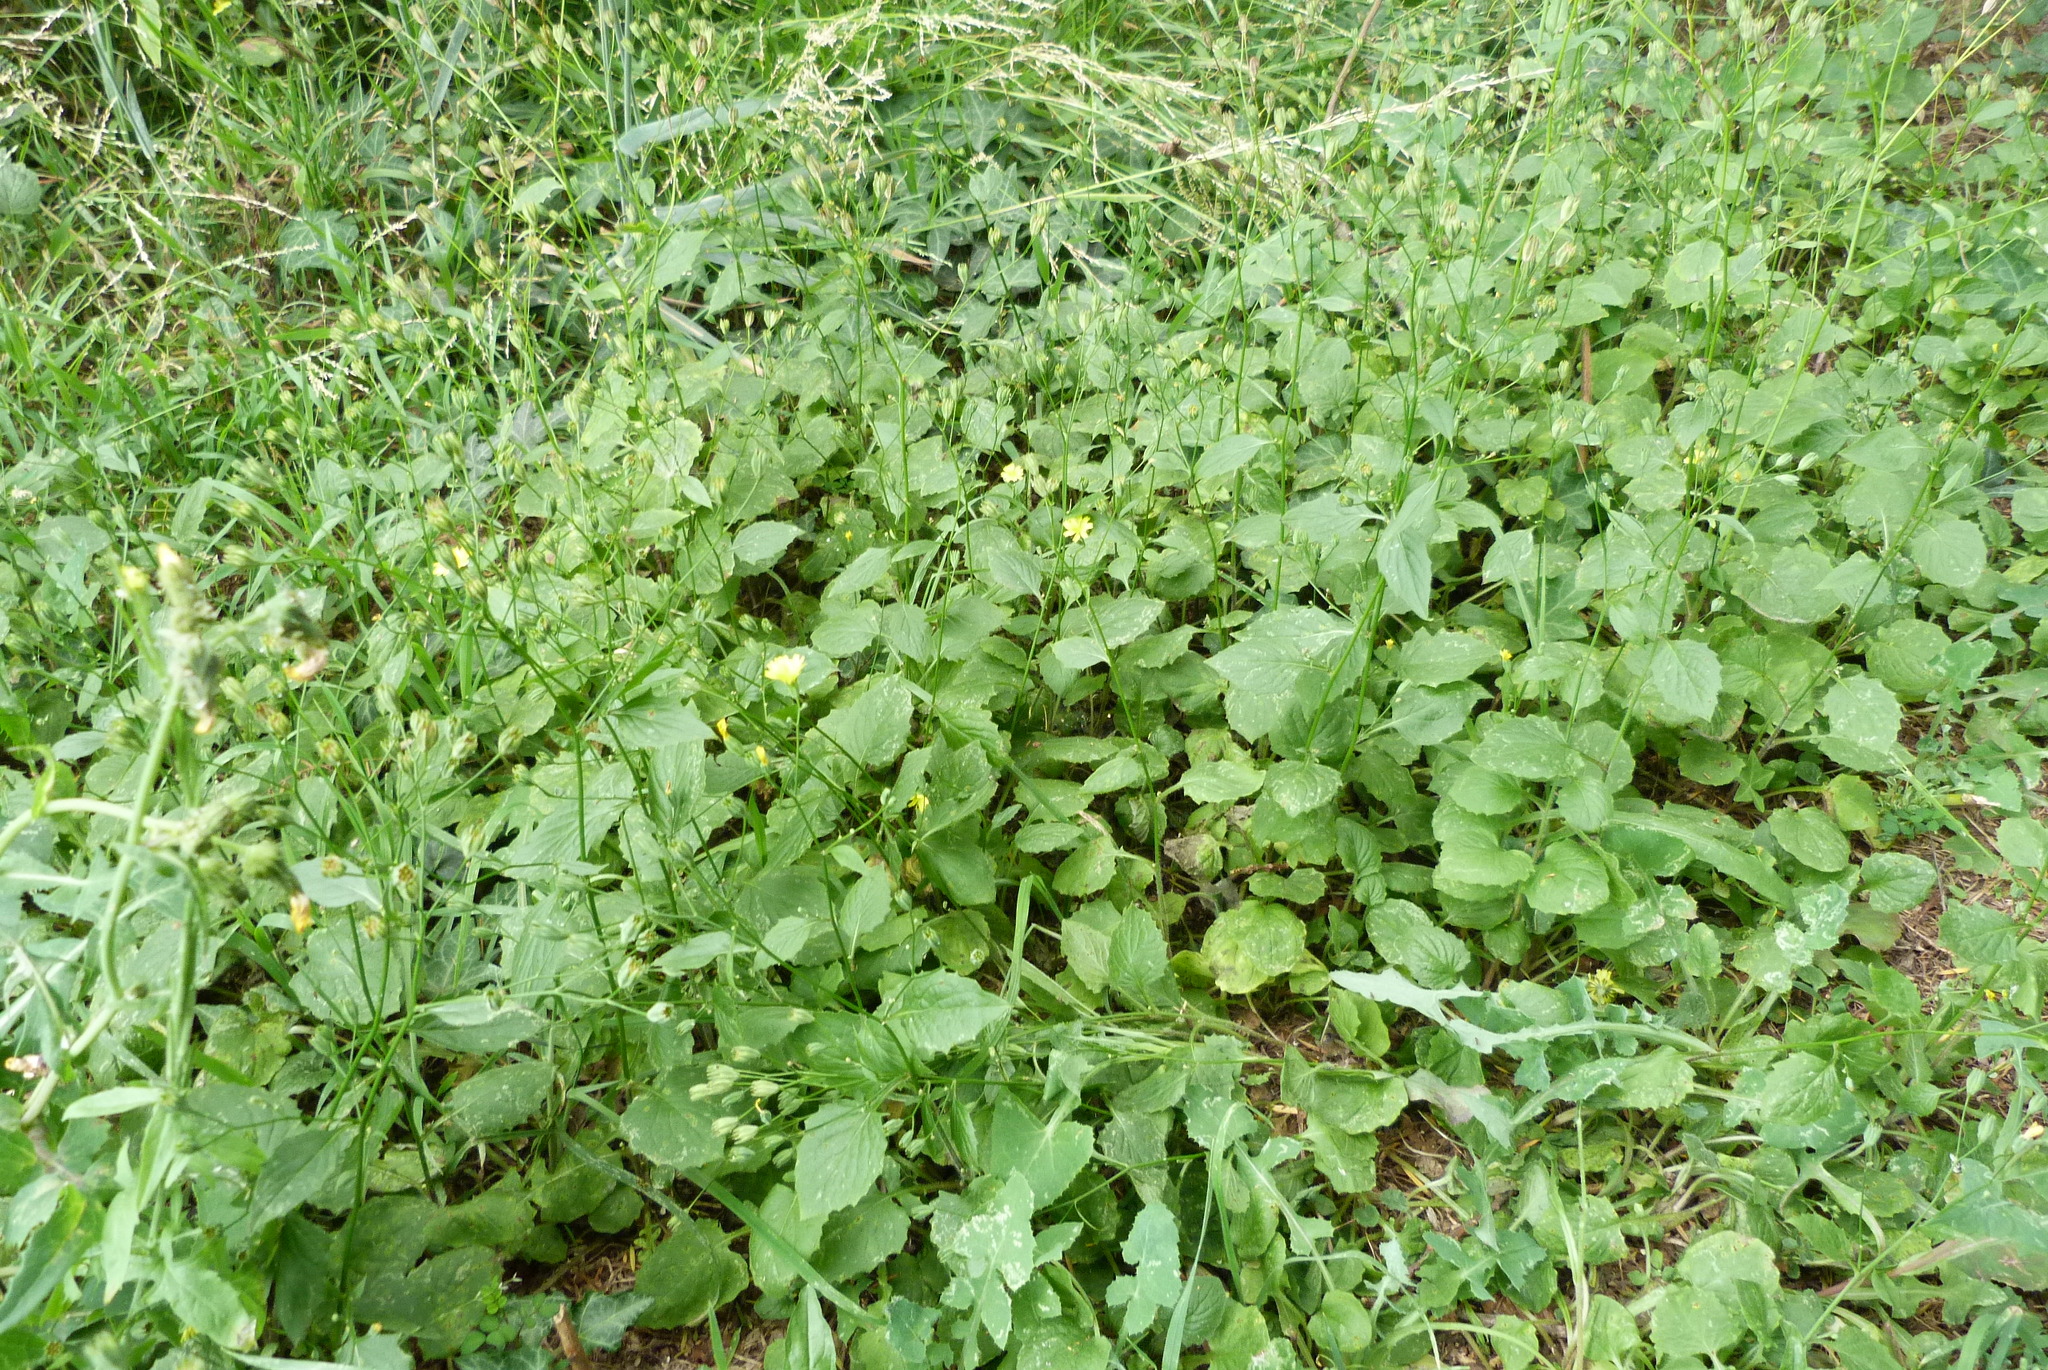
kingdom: Plantae
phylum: Tracheophyta
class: Magnoliopsida
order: Asterales
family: Asteraceae
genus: Lapsana
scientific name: Lapsana communis
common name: Nipplewort
